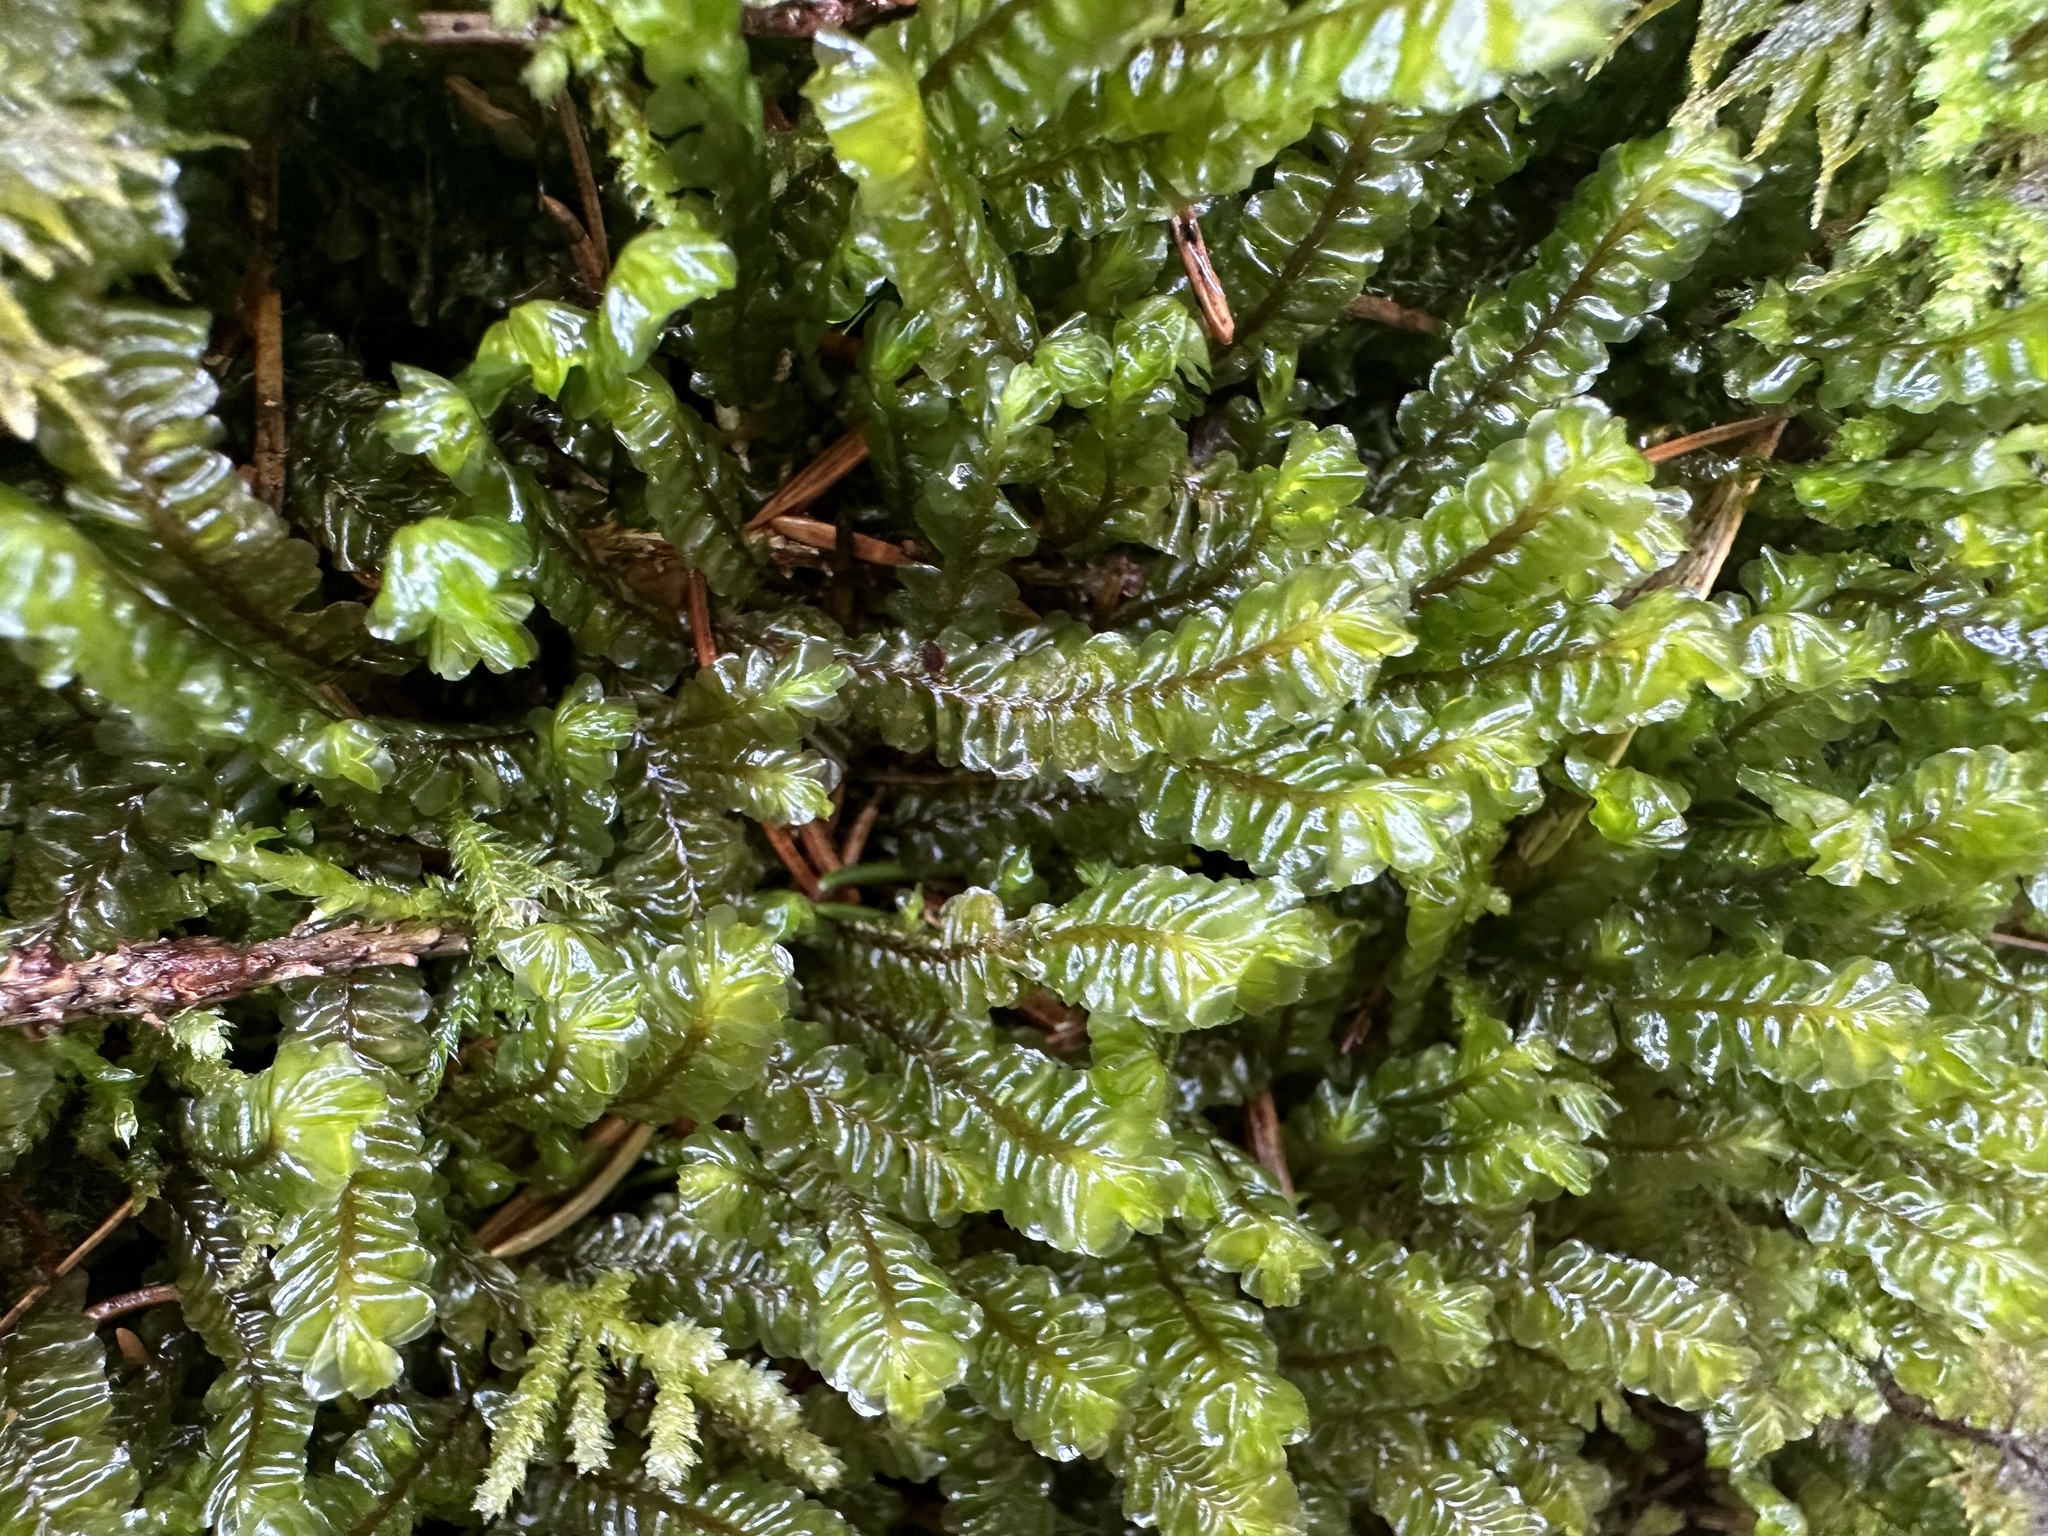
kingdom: Plantae
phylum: Marchantiophyta
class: Jungermanniopsida
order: Jungermanniales
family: Plagiochilaceae
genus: Plagiochila
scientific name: Plagiochila asplenioides
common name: Greater featherwort
